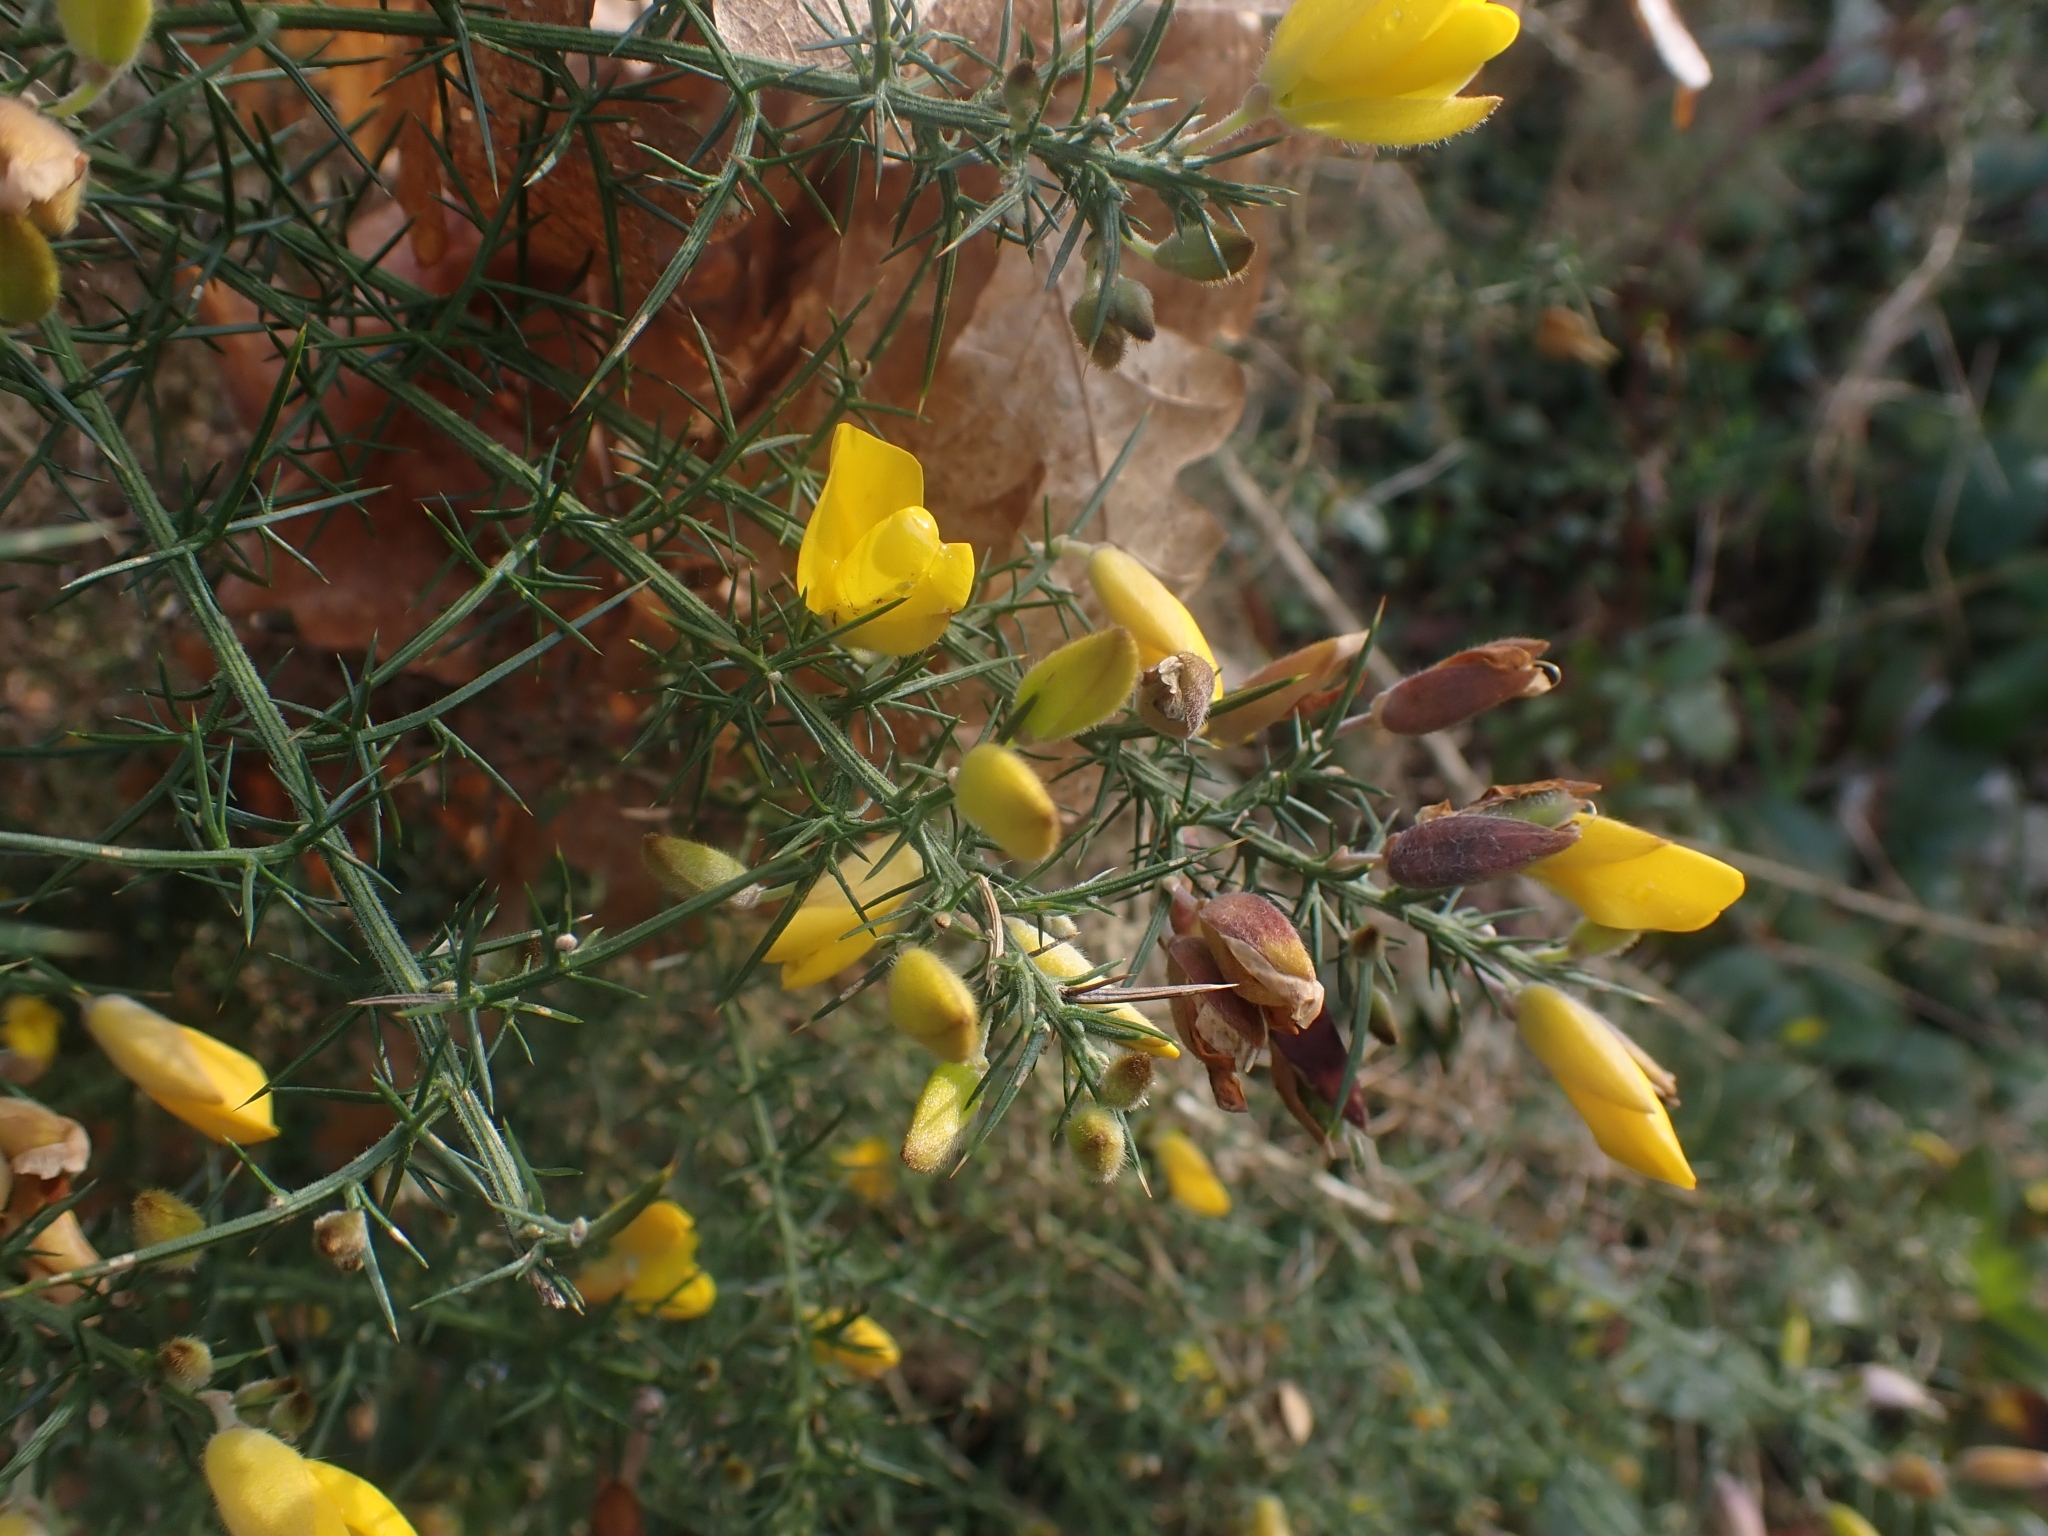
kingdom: Plantae
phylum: Tracheophyta
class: Magnoliopsida
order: Fabales
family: Fabaceae
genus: Ulex
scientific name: Ulex europaeus
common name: Common gorse
